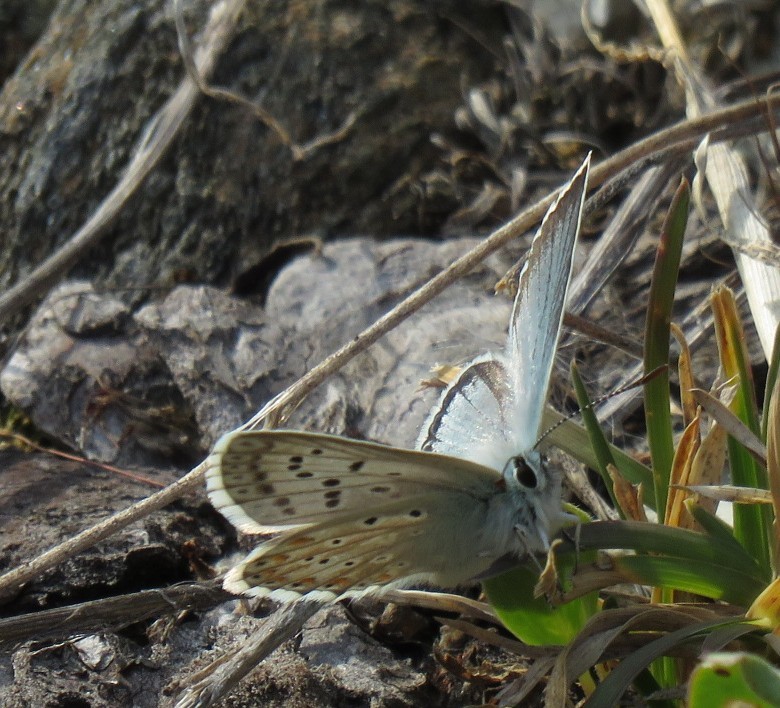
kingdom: Animalia
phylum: Arthropoda
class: Insecta
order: Lepidoptera
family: Lycaenidae
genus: Lysandra
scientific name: Lysandra coridon
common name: Chalkhill blue
